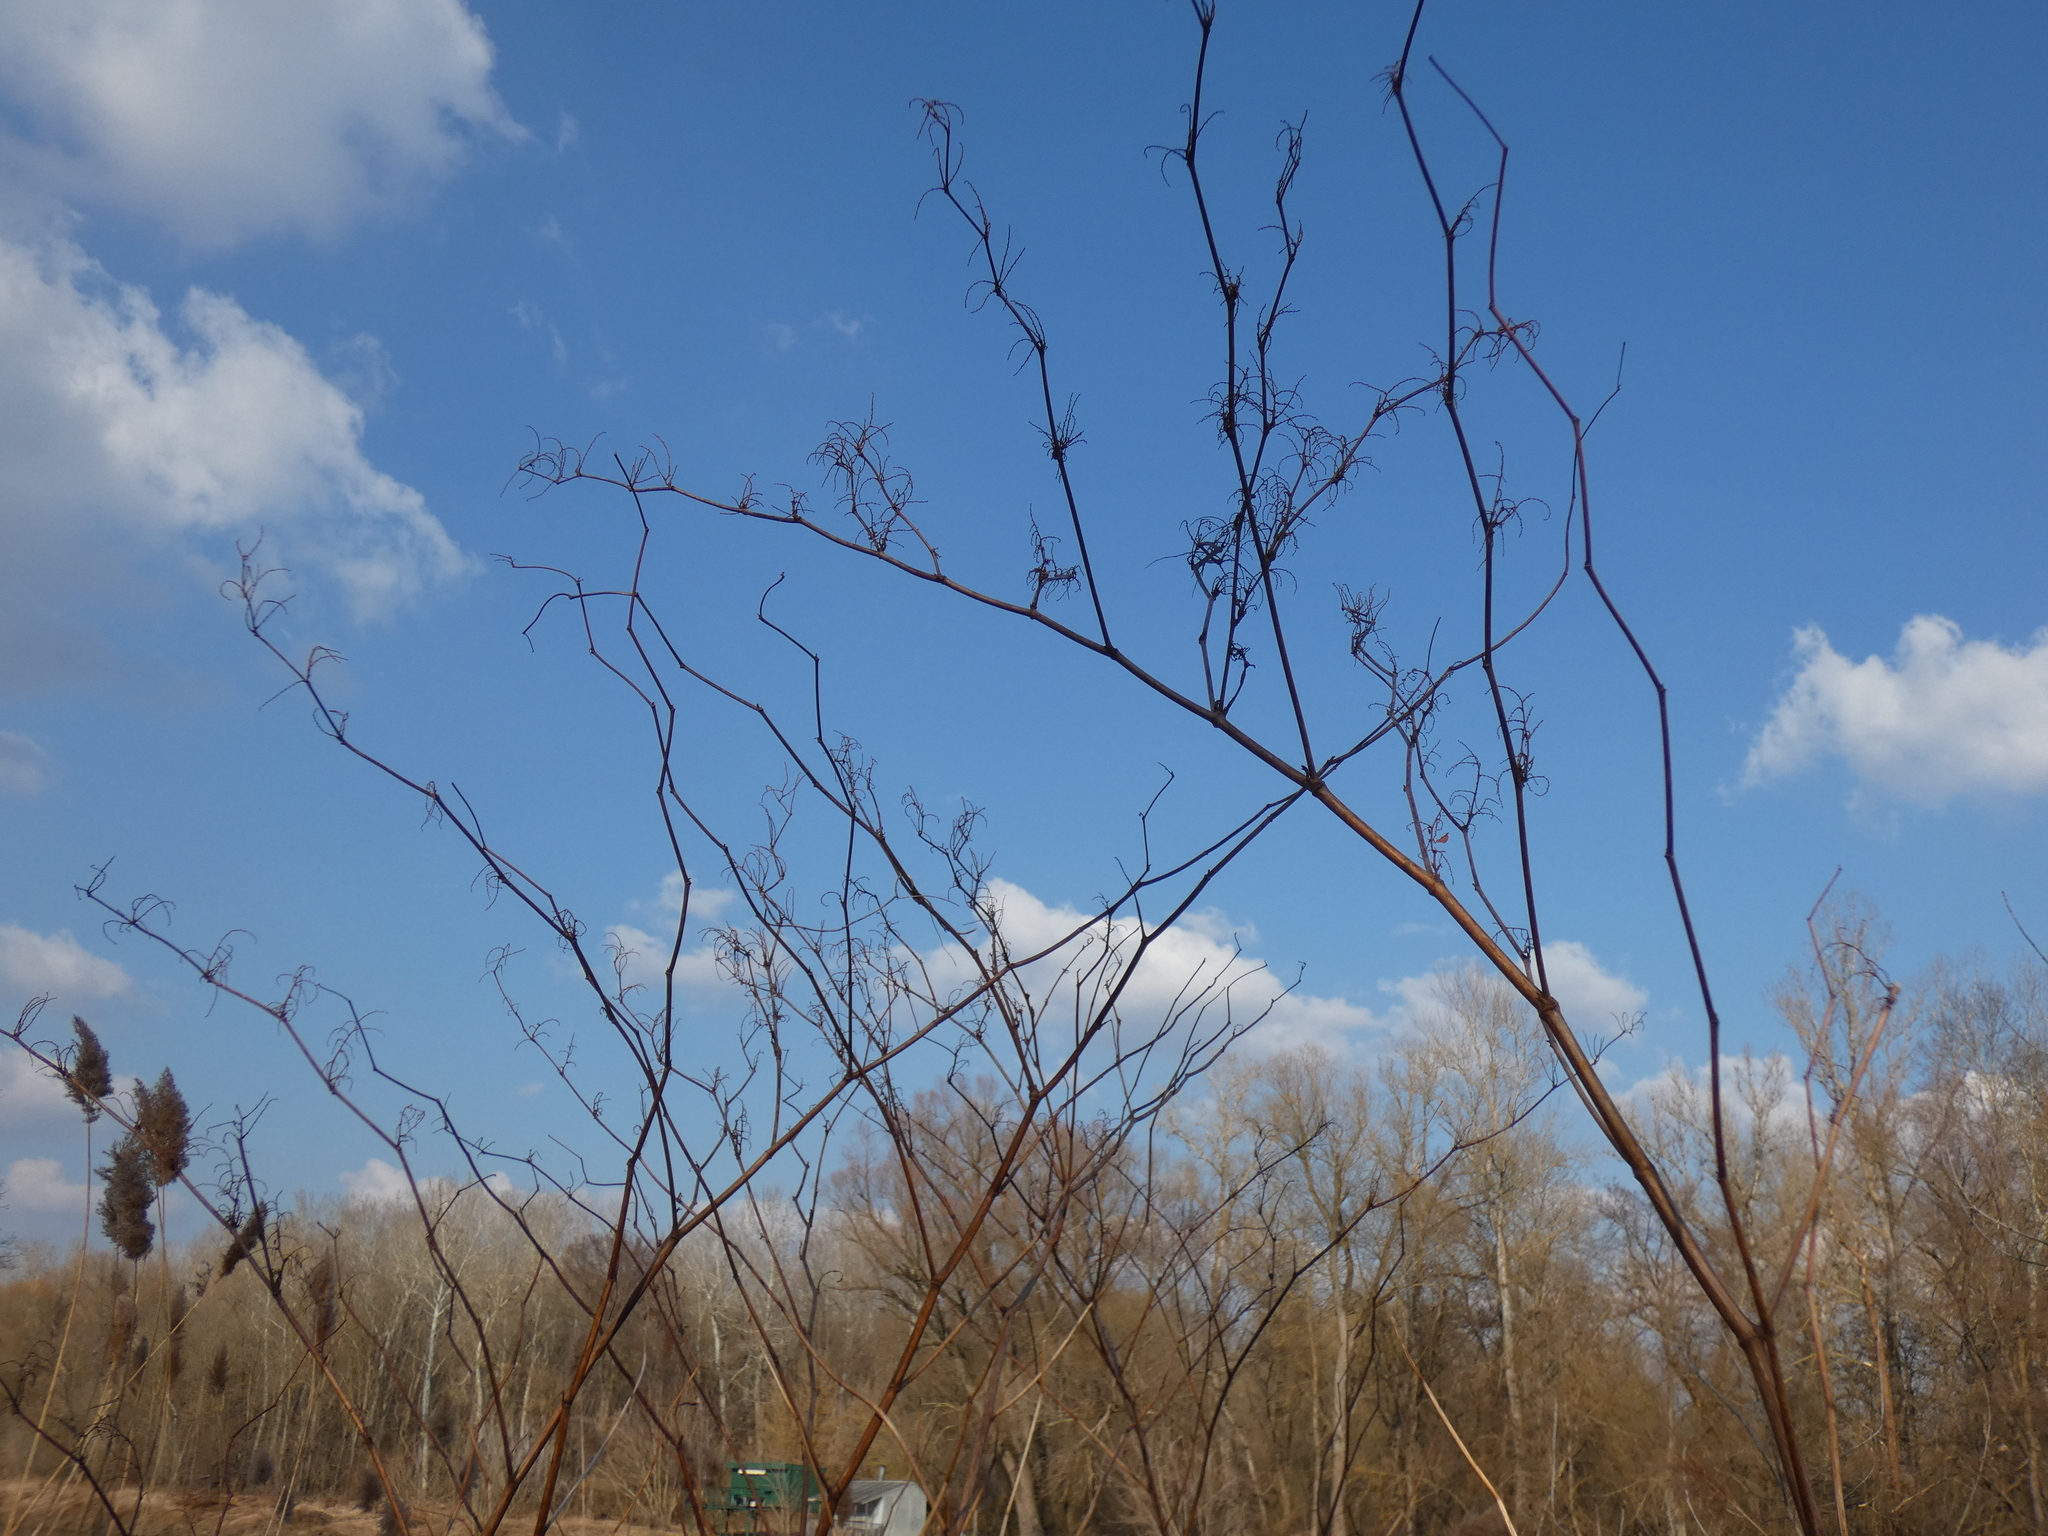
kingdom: Plantae
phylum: Tracheophyta
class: Magnoliopsida
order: Caryophyllales
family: Polygonaceae
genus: Reynoutria
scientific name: Reynoutria bohemica
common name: Bohemian knotweed
